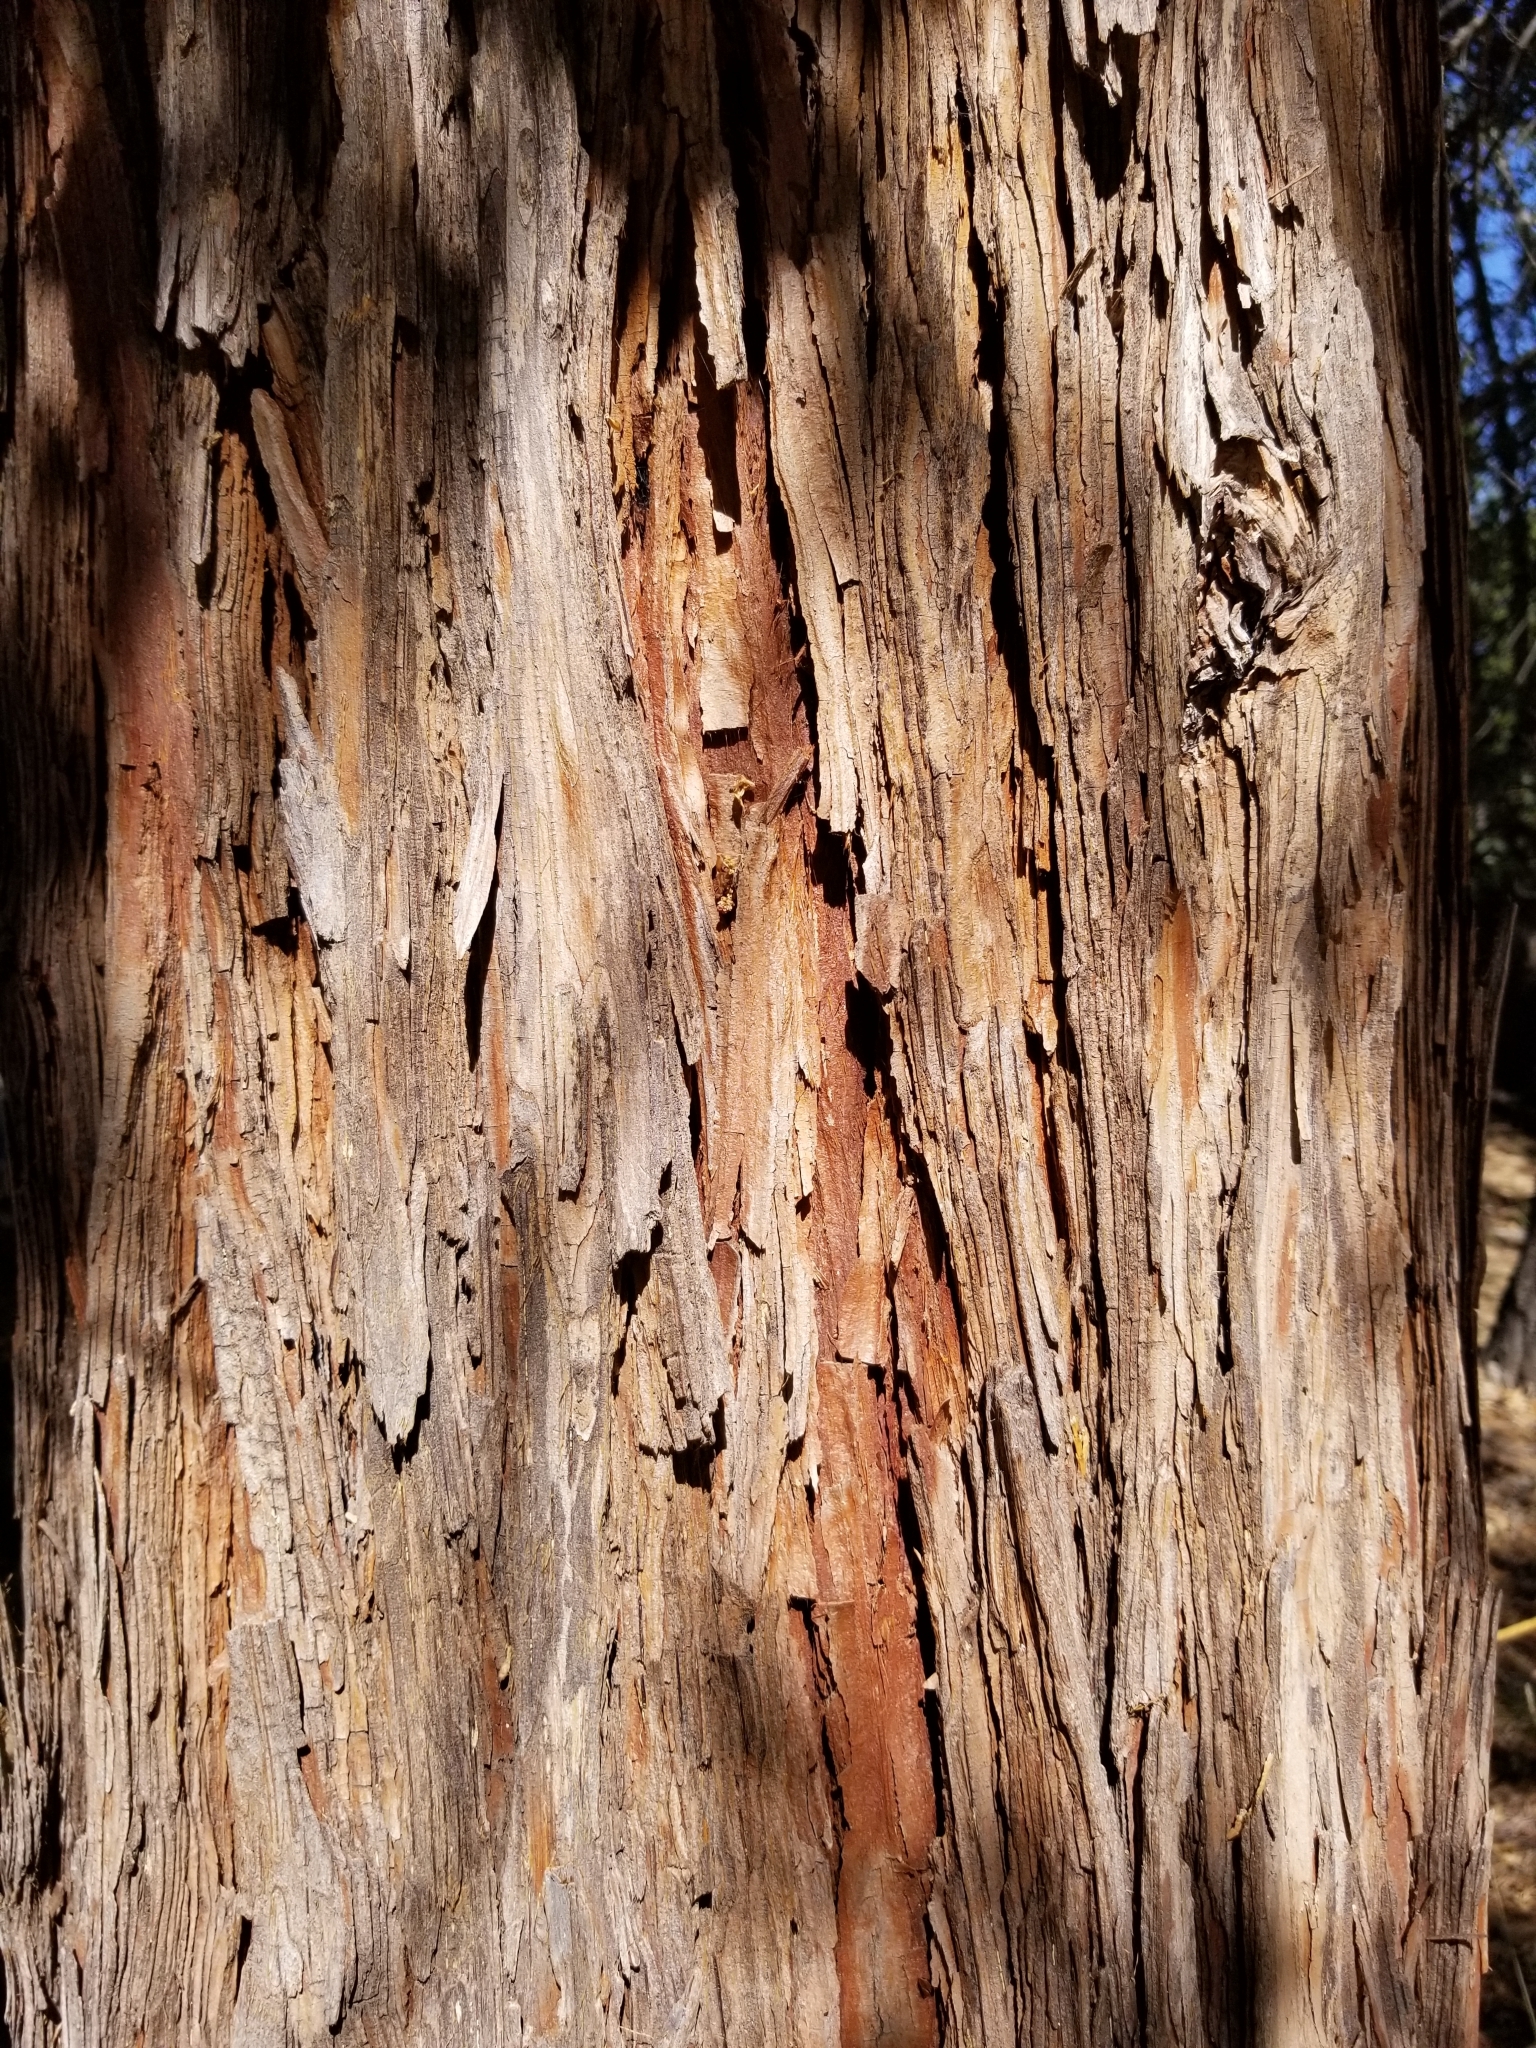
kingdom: Plantae
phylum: Tracheophyta
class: Pinopsida
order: Pinales
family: Cupressaceae
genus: Calocedrus
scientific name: Calocedrus decurrens
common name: Californian incense-cedar
